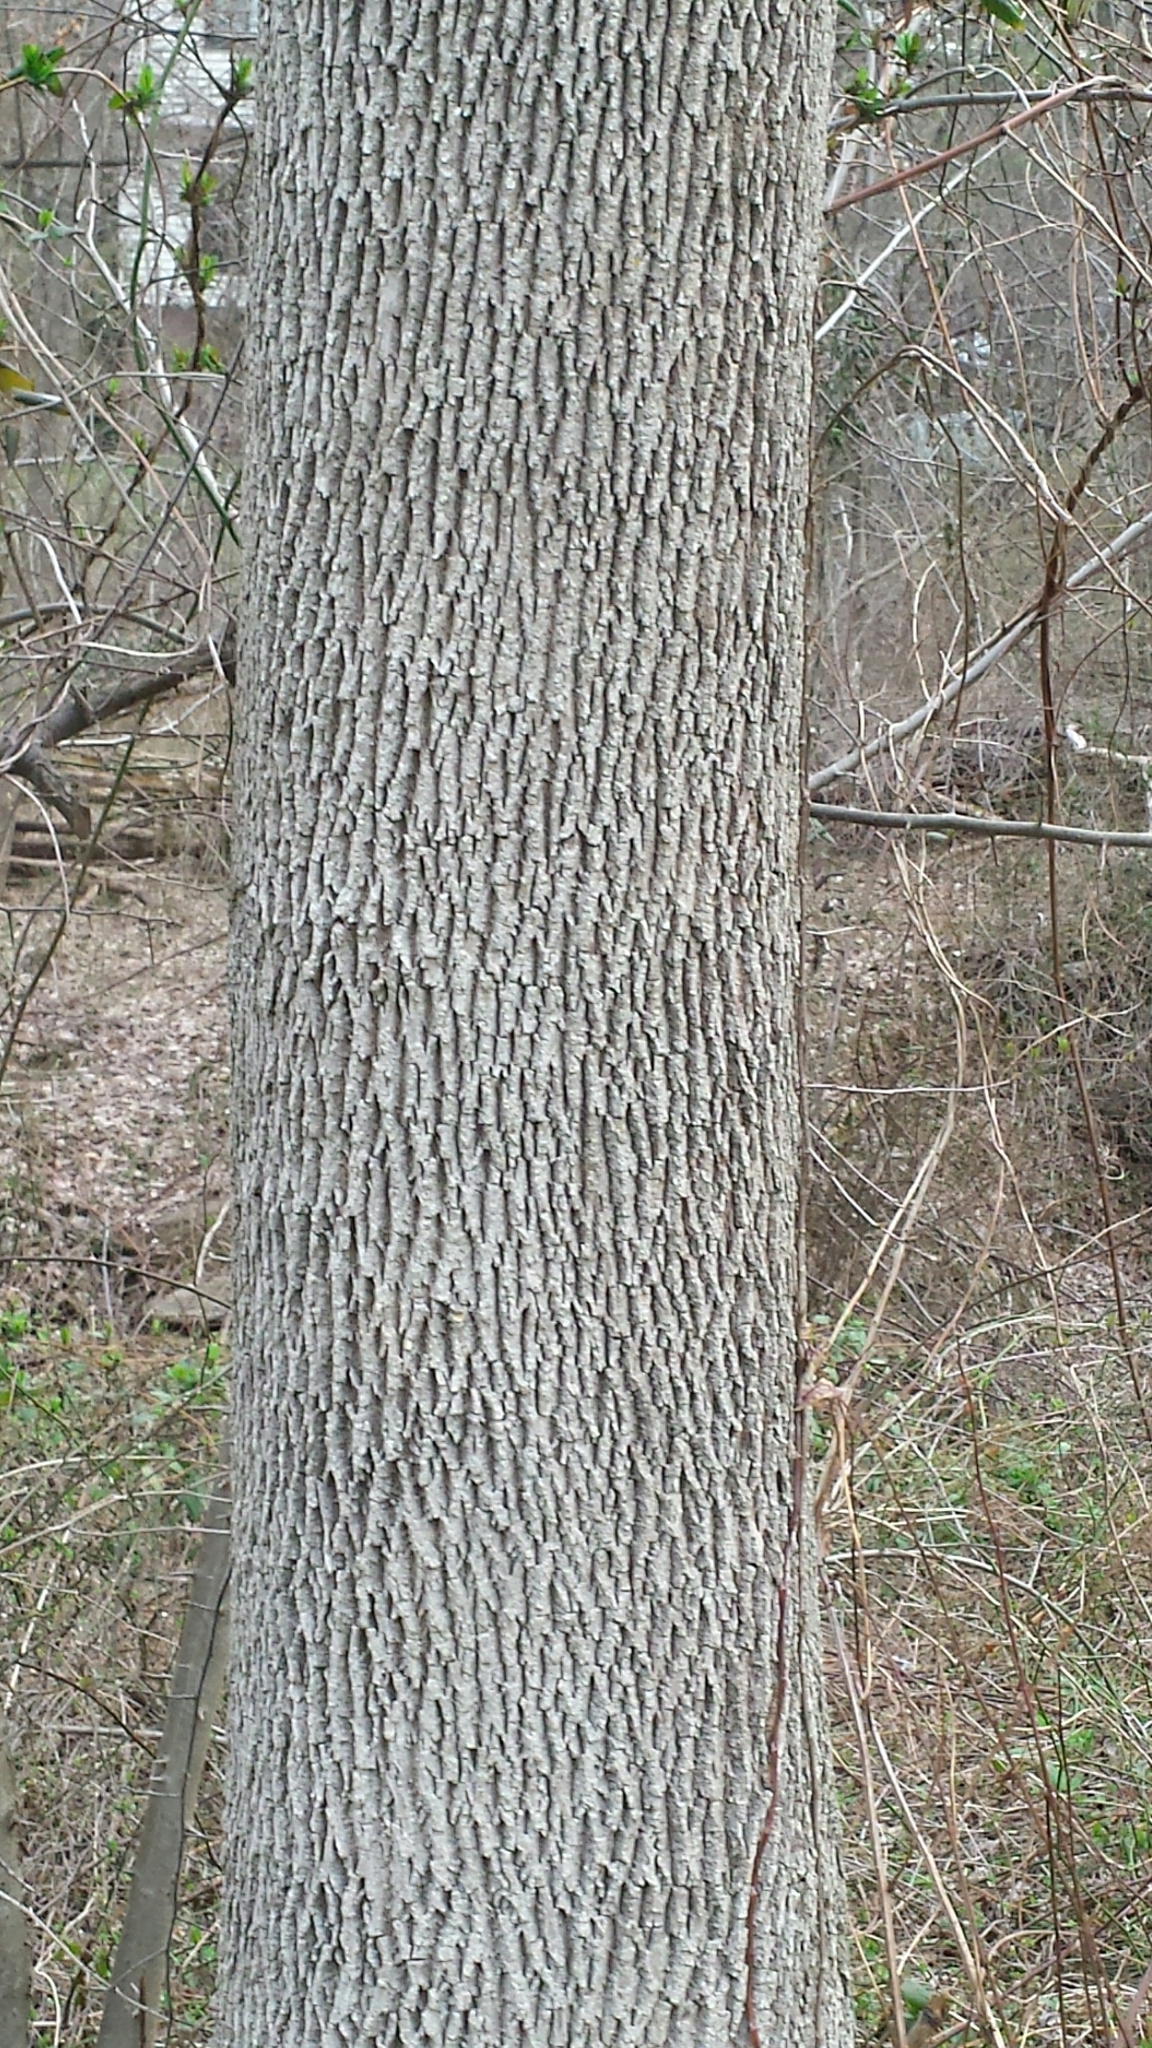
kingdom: Plantae
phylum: Tracheophyta
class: Magnoliopsida
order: Lamiales
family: Oleaceae
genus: Fraxinus
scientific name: Fraxinus americana
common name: White ash
